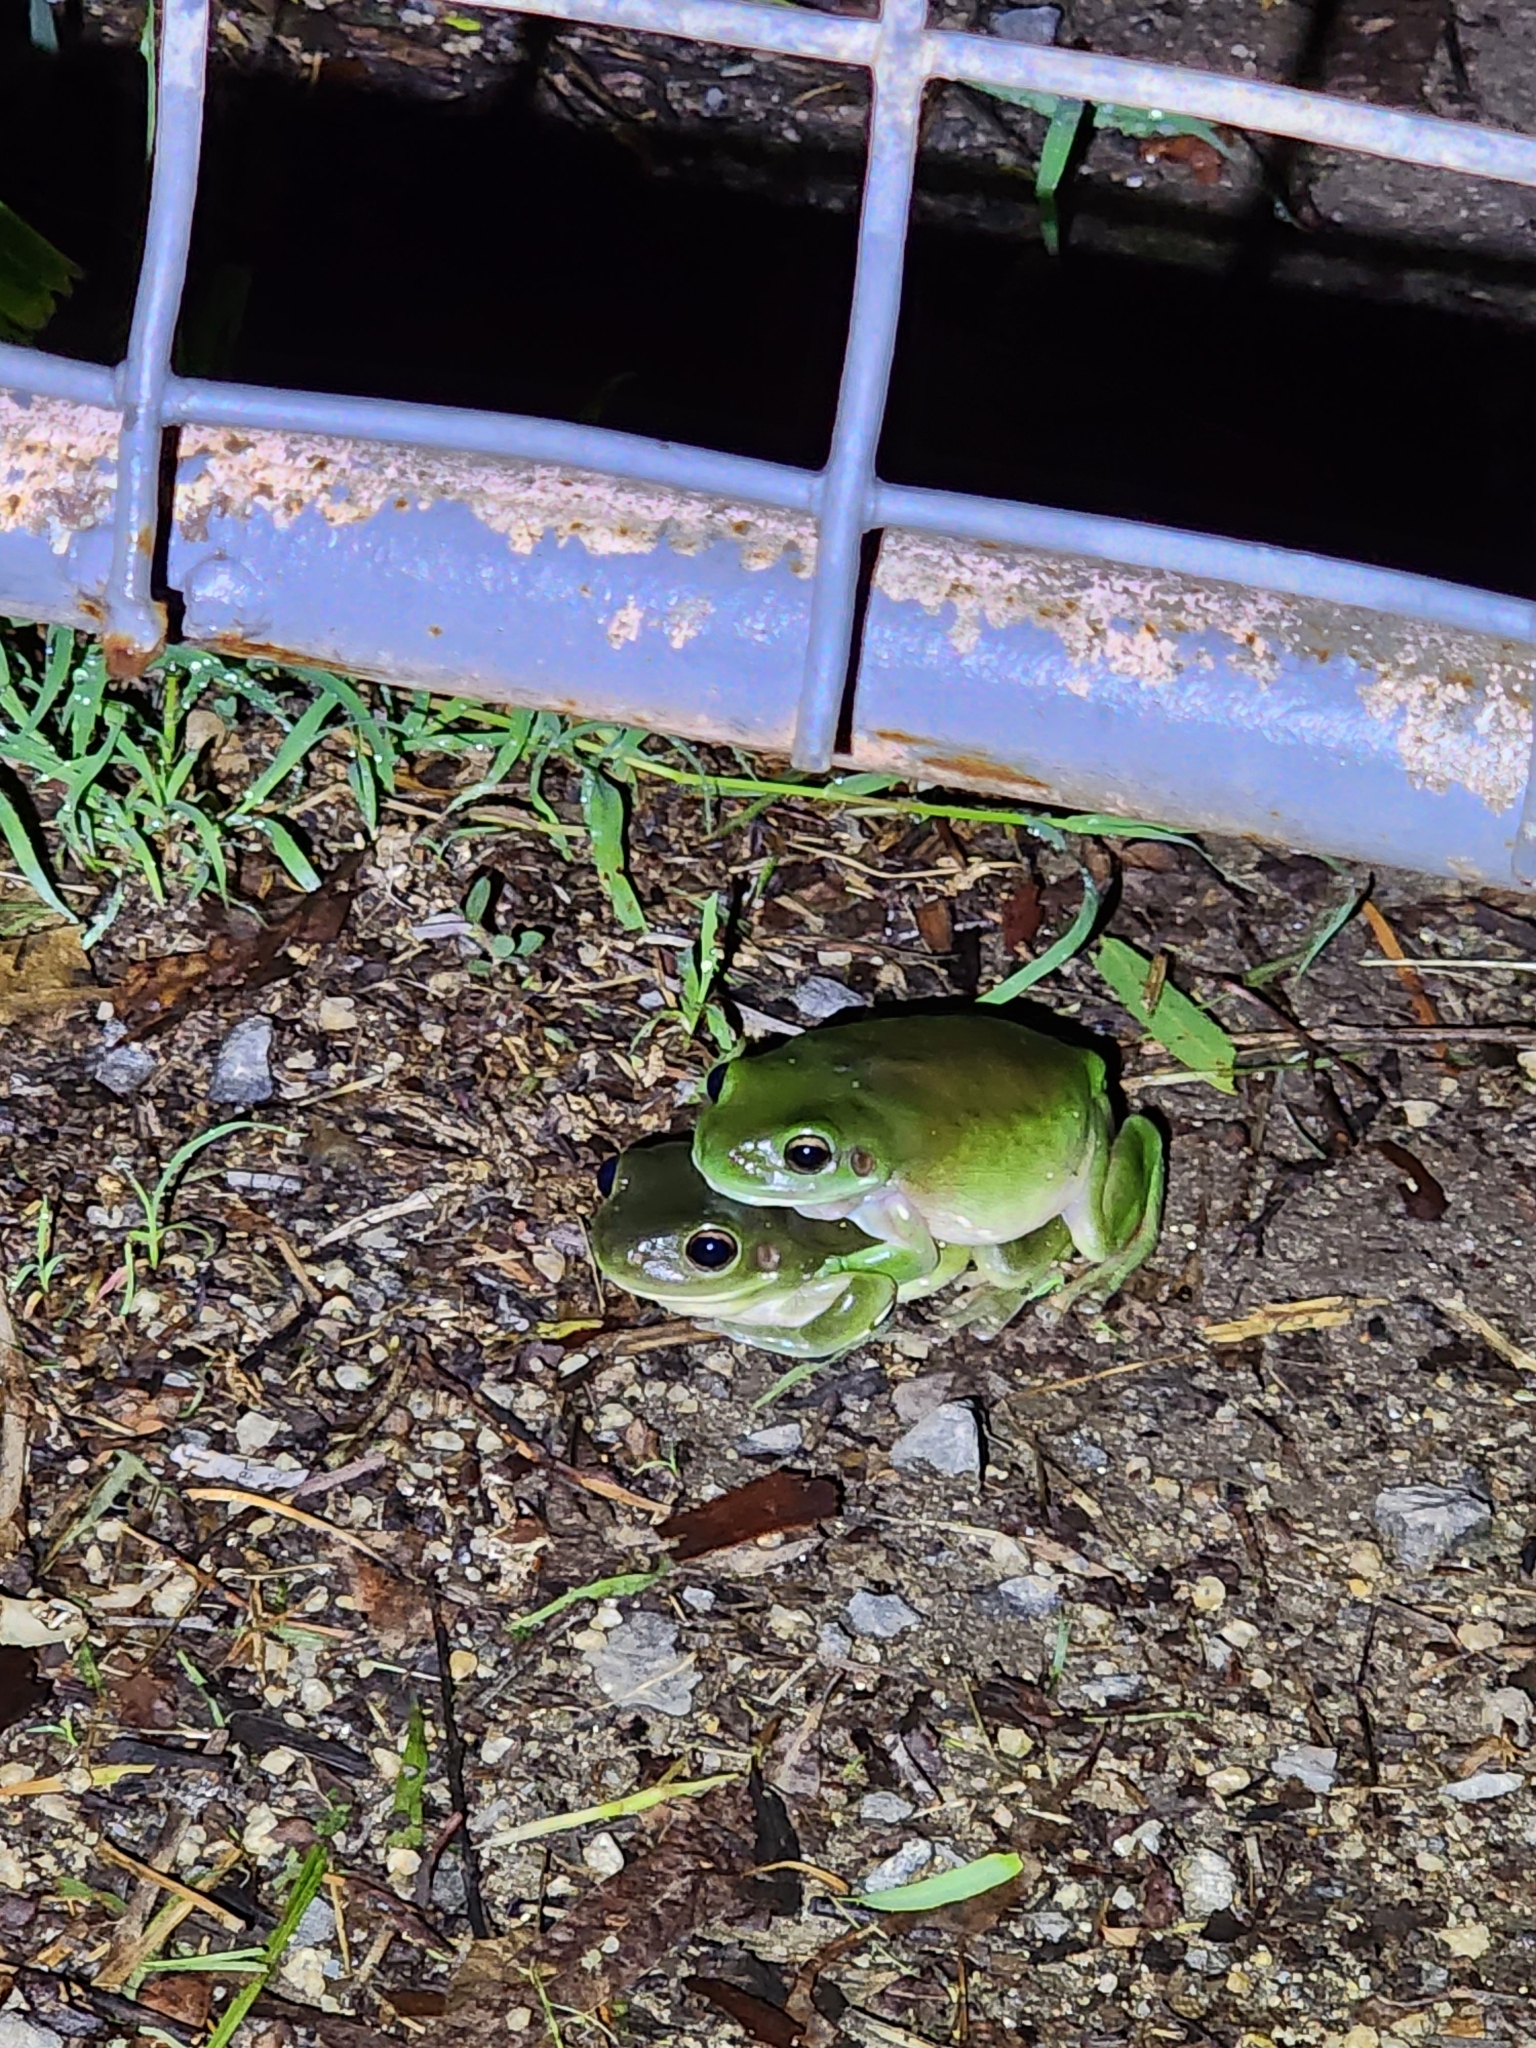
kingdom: Animalia
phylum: Chordata
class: Amphibia
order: Anura
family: Pelodryadidae
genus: Ranoidea
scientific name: Ranoidea caerulea
